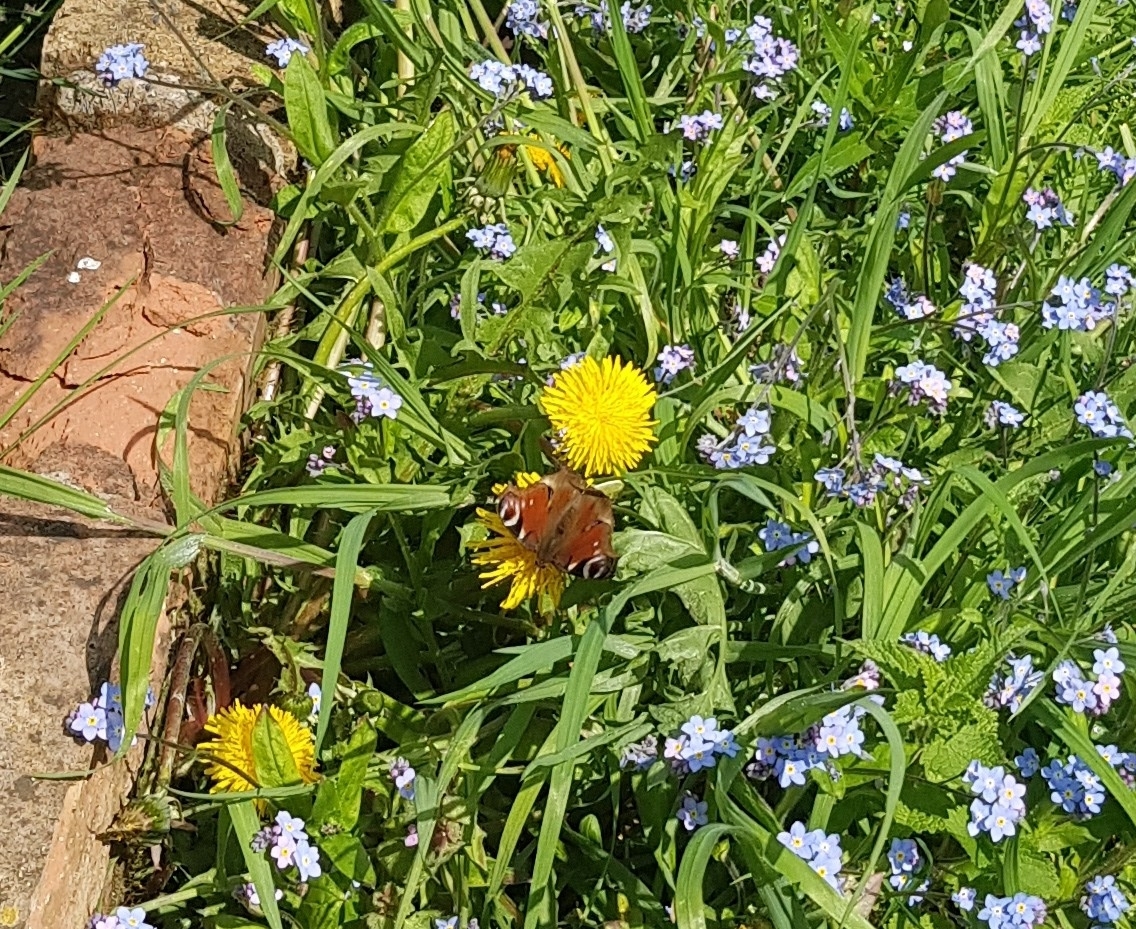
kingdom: Animalia
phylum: Arthropoda
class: Insecta
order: Lepidoptera
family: Nymphalidae
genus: Aglais
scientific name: Aglais io
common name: Peacock
